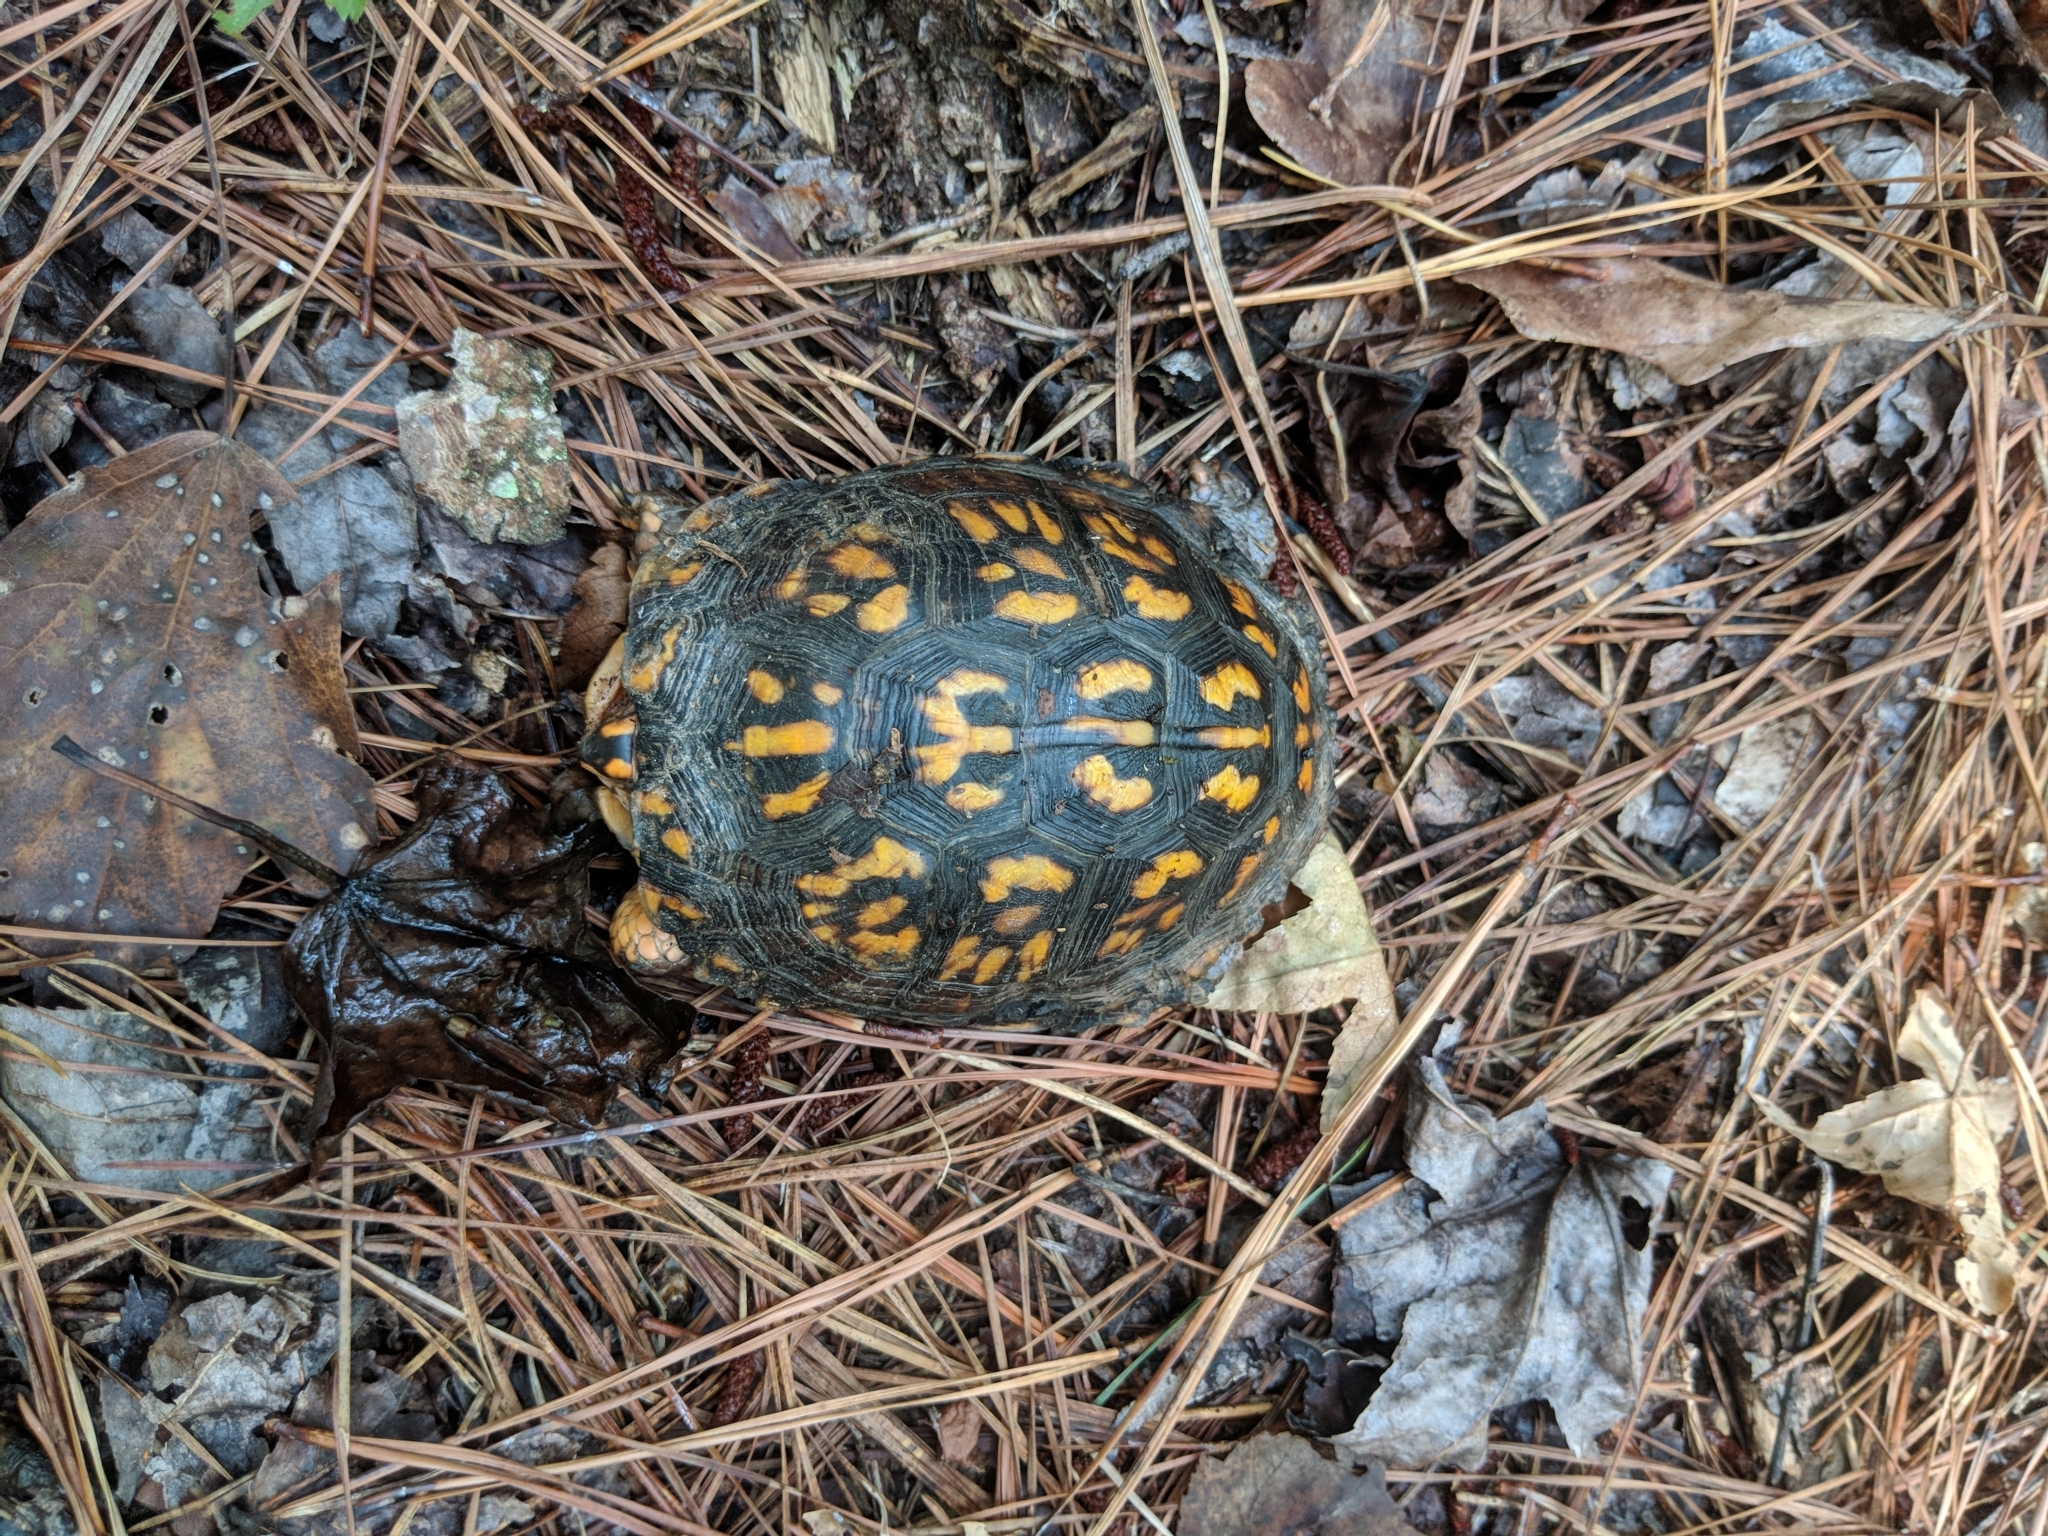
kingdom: Animalia
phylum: Chordata
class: Testudines
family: Emydidae
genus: Terrapene
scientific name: Terrapene carolina
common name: Common box turtle
